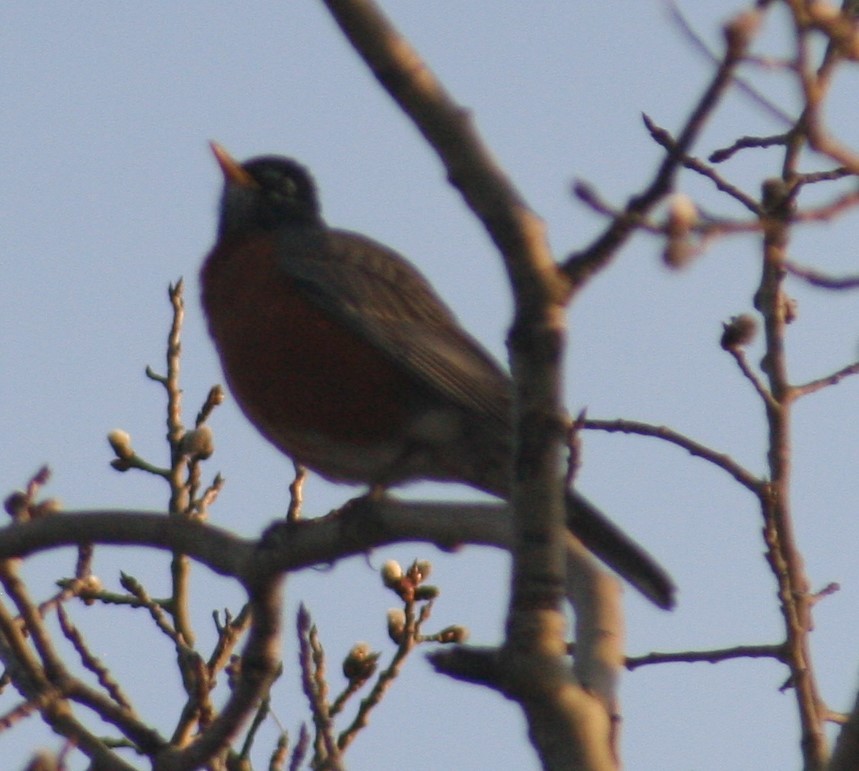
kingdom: Animalia
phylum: Chordata
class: Aves
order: Passeriformes
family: Turdidae
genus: Turdus
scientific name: Turdus migratorius
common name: American robin
